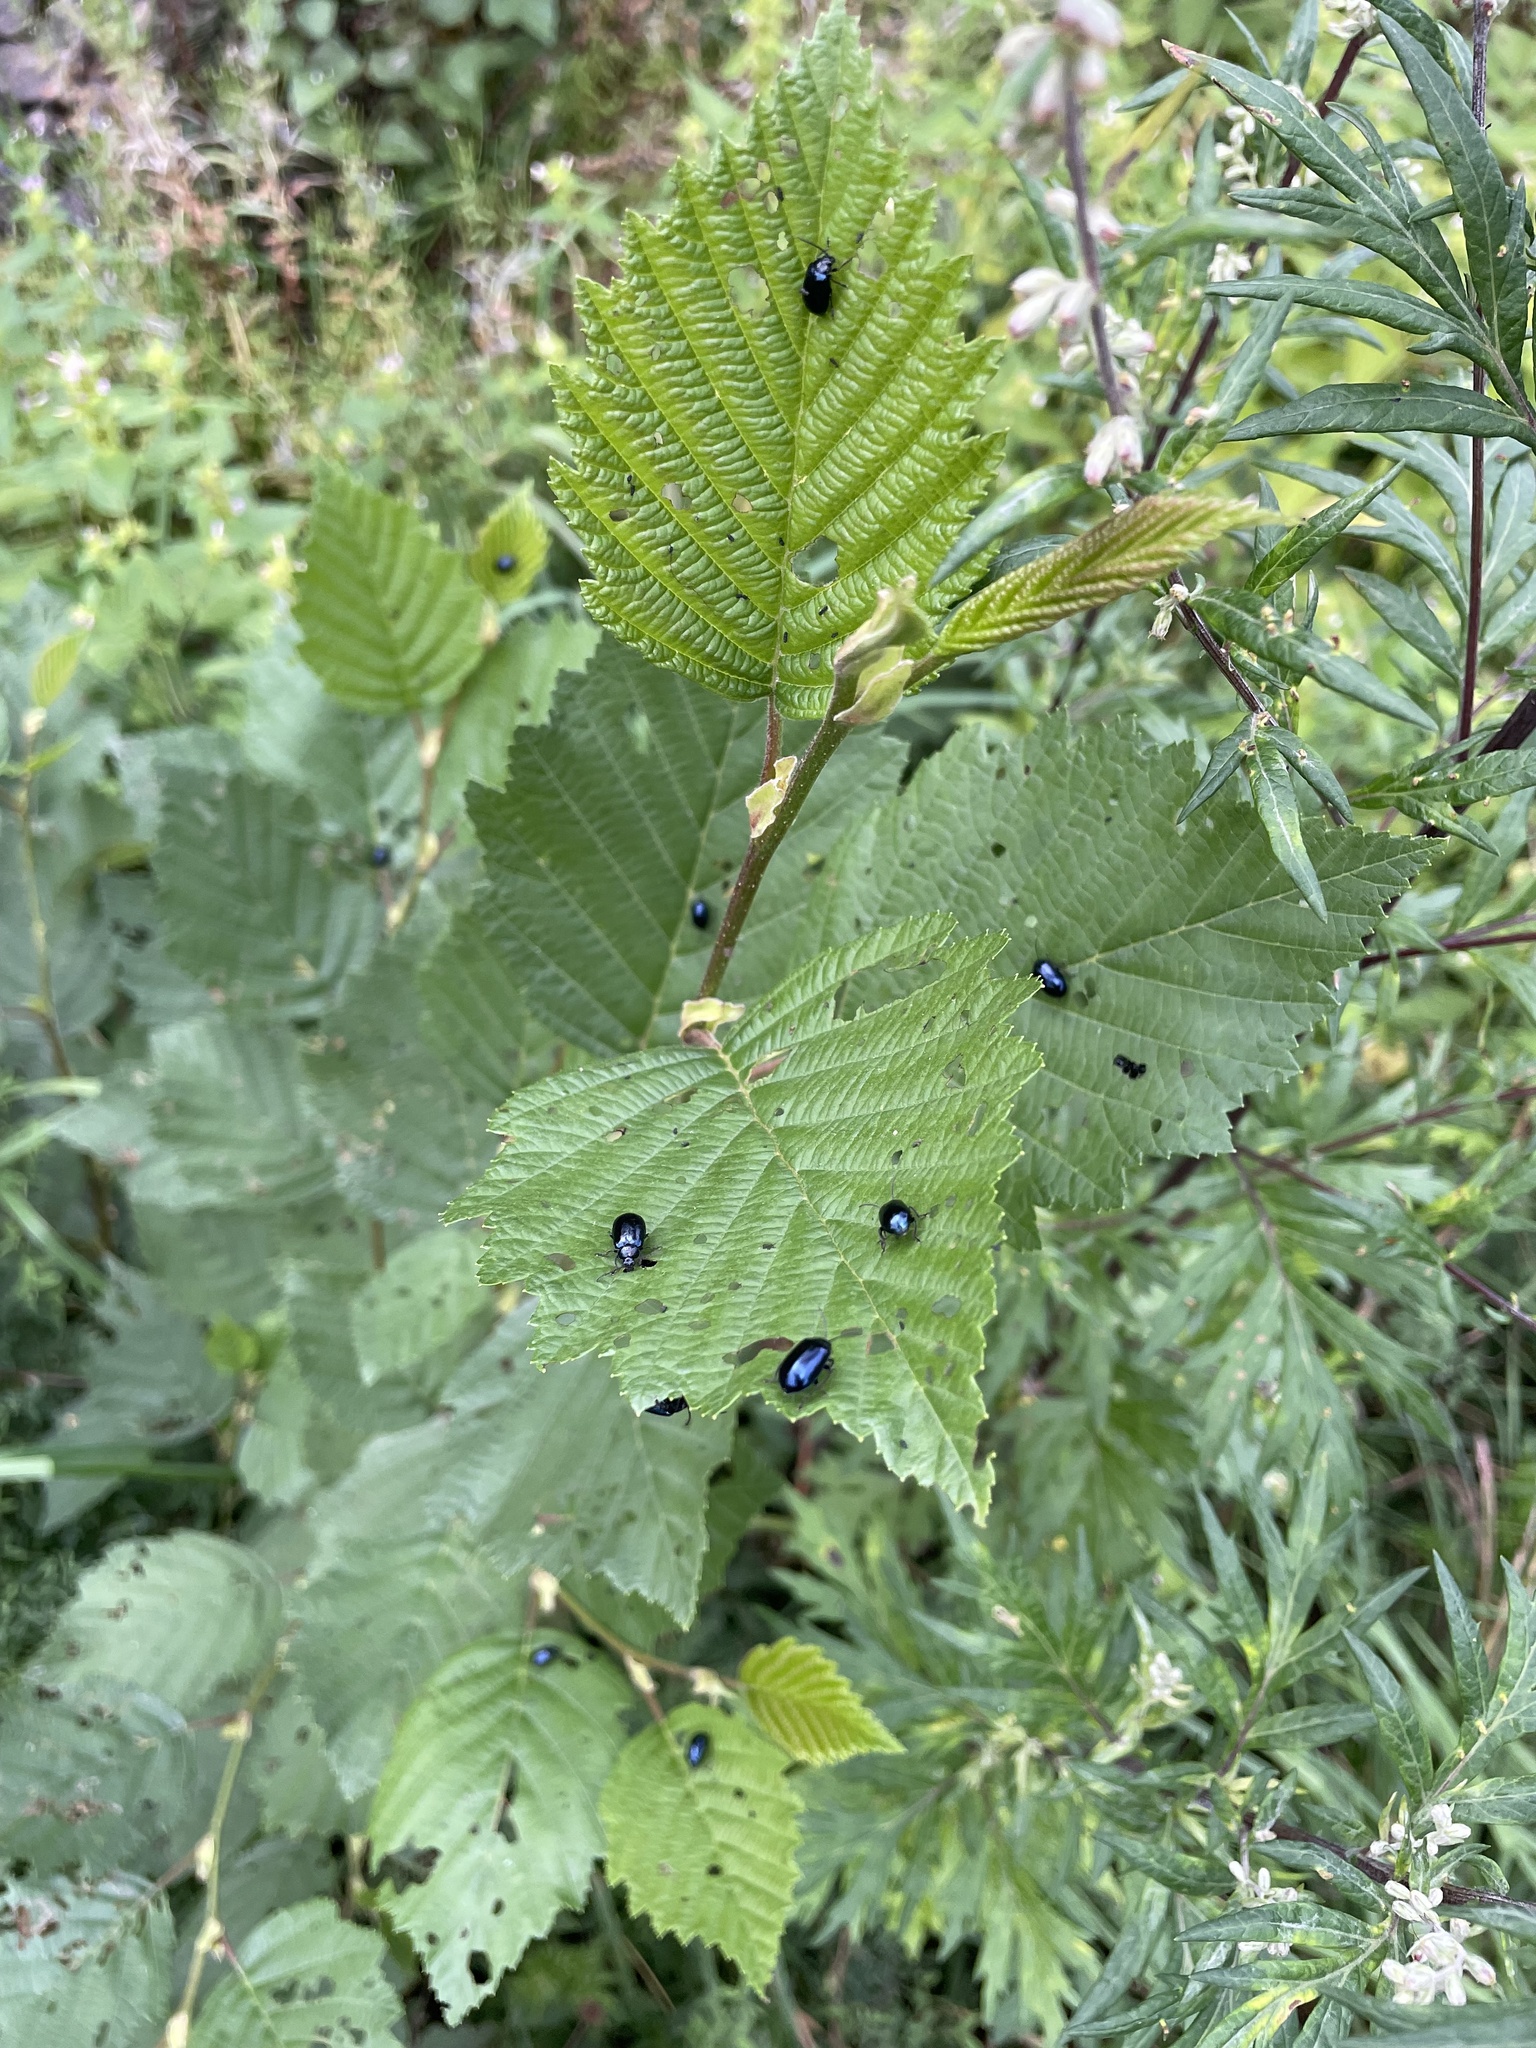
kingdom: Animalia
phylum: Arthropoda
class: Insecta
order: Coleoptera
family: Chrysomelidae
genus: Agelastica
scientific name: Agelastica alni
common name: Alder leaf beetle
